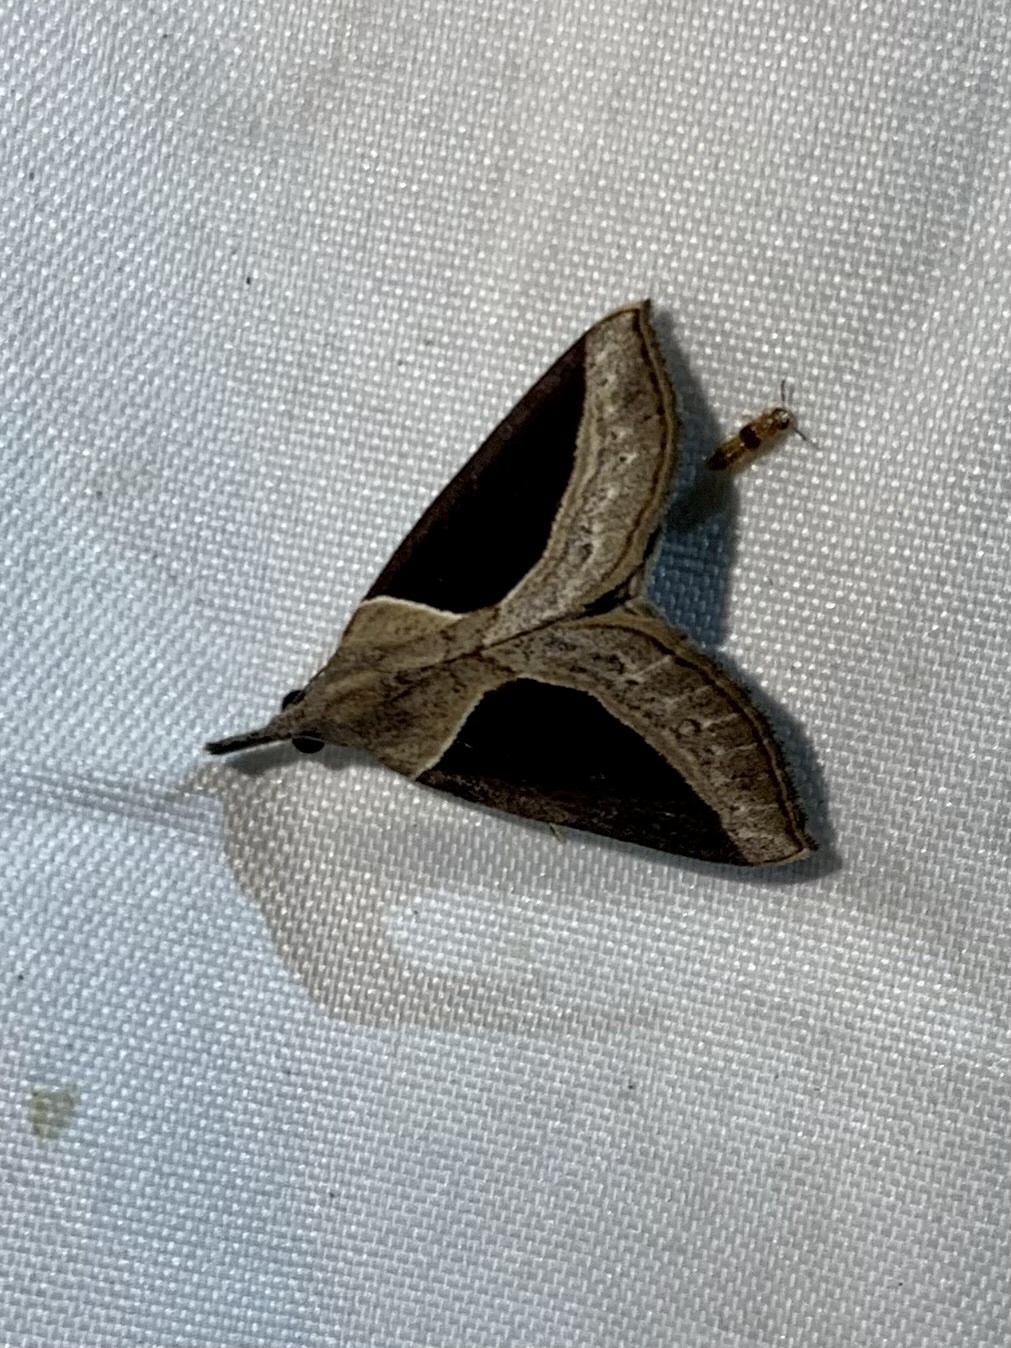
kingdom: Animalia
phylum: Arthropoda
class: Insecta
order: Lepidoptera
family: Erebidae
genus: Hypena
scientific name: Hypena
